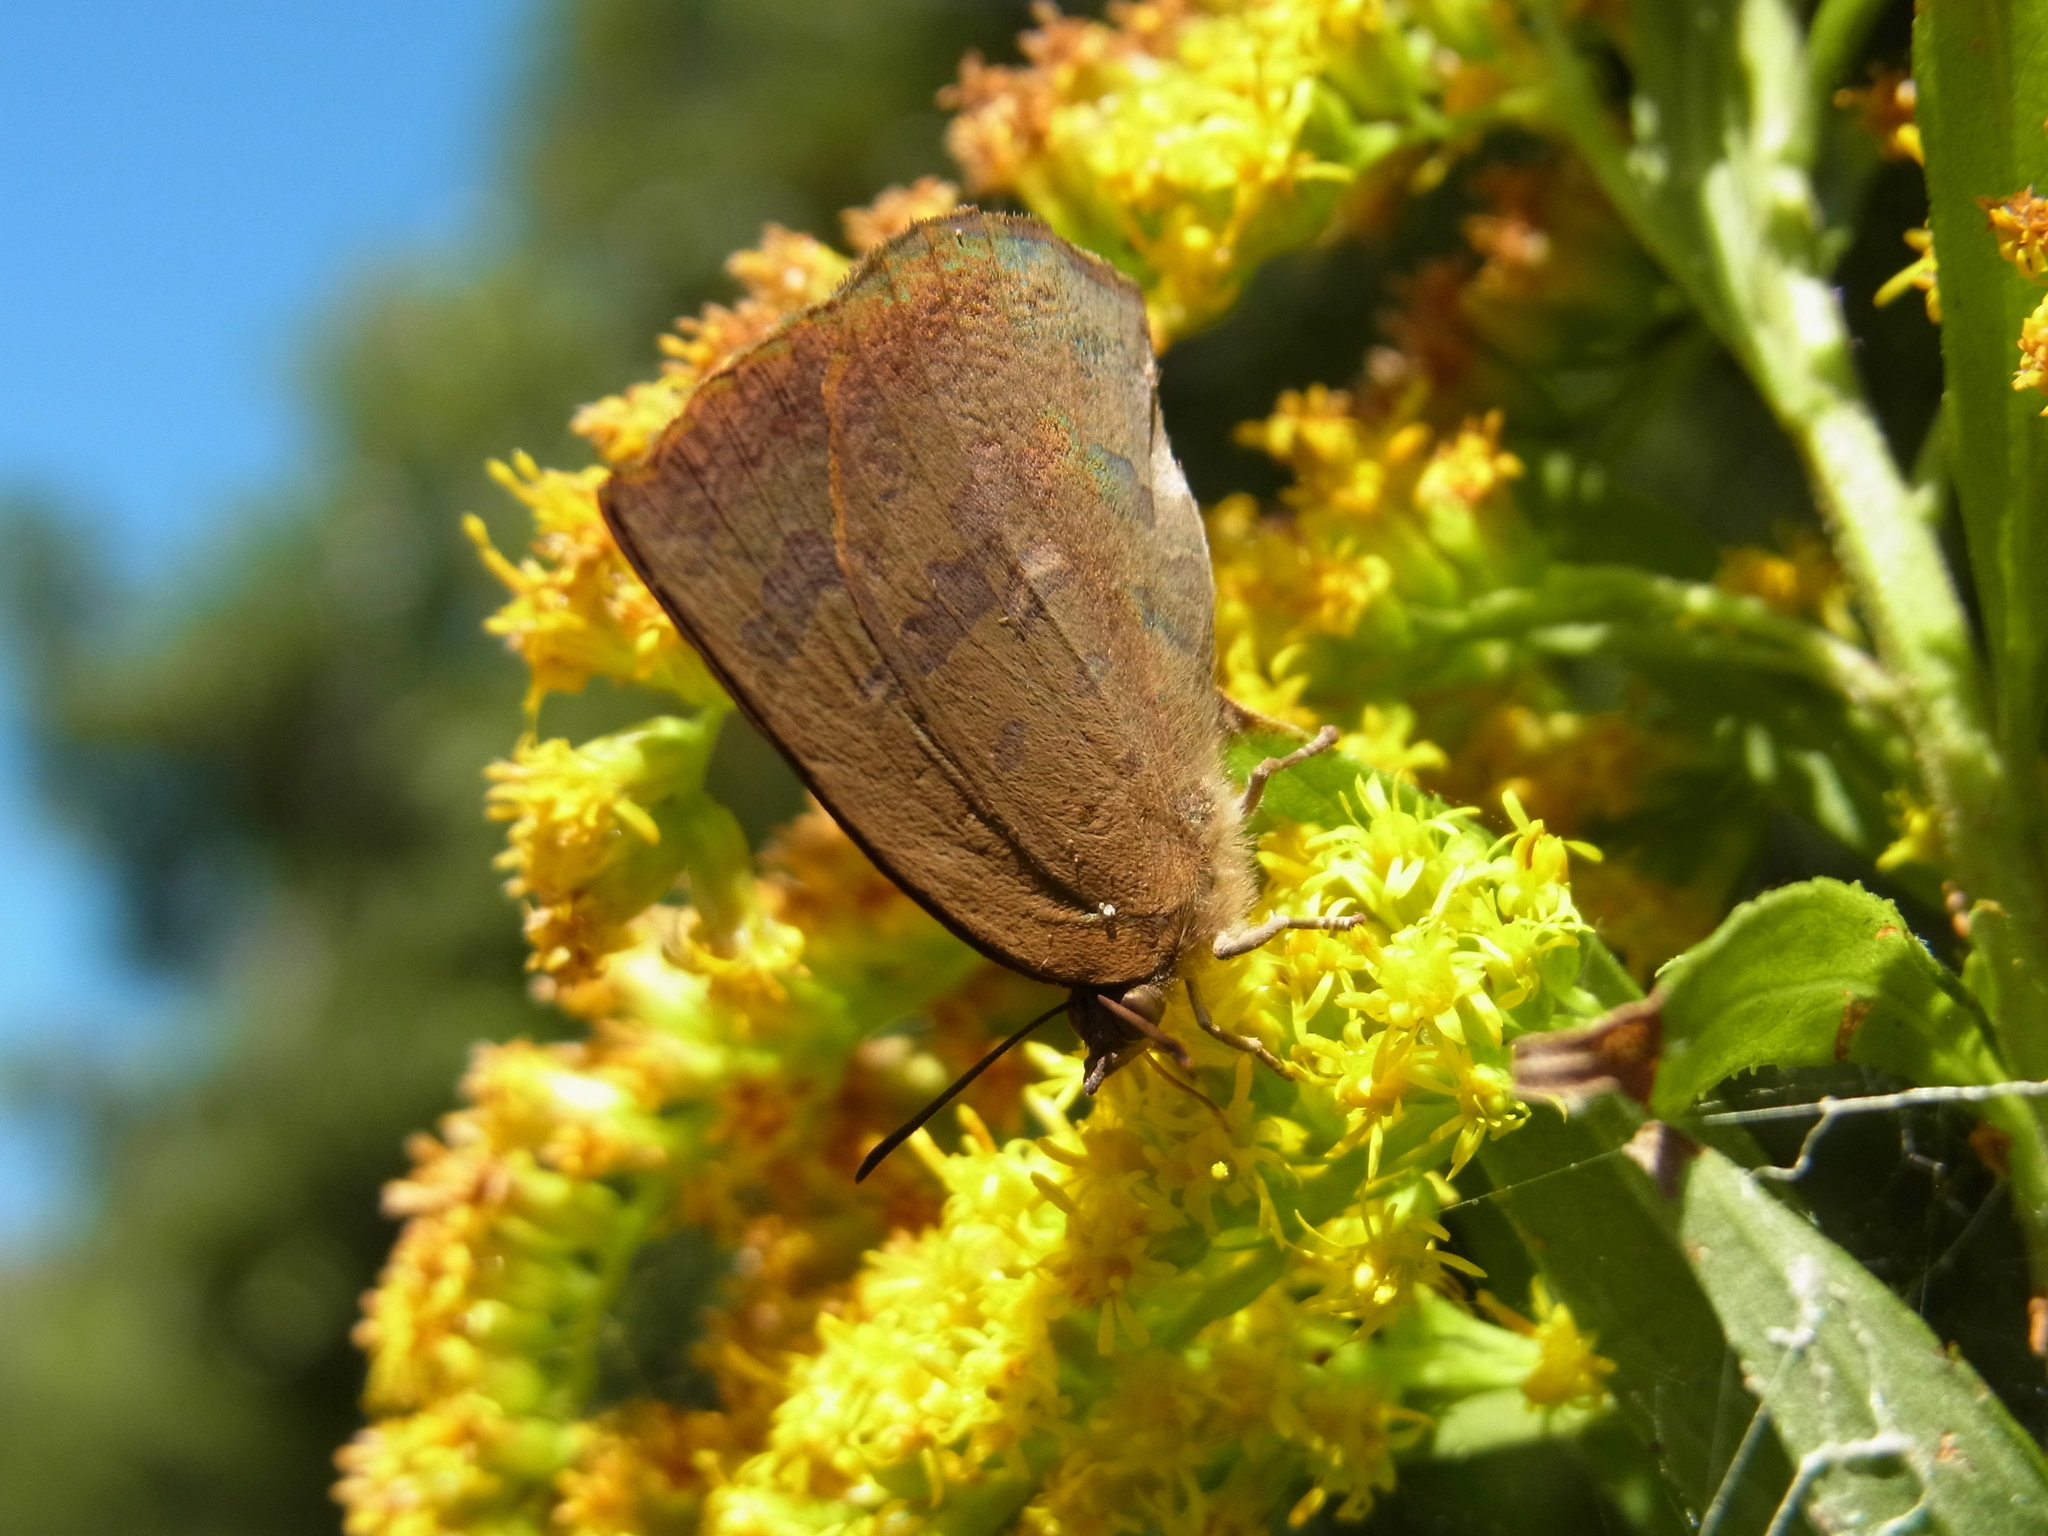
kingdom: Animalia
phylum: Arthropoda
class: Insecta
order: Lepidoptera
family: Lycaenidae
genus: Arhopala
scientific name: Arhopala japonica
